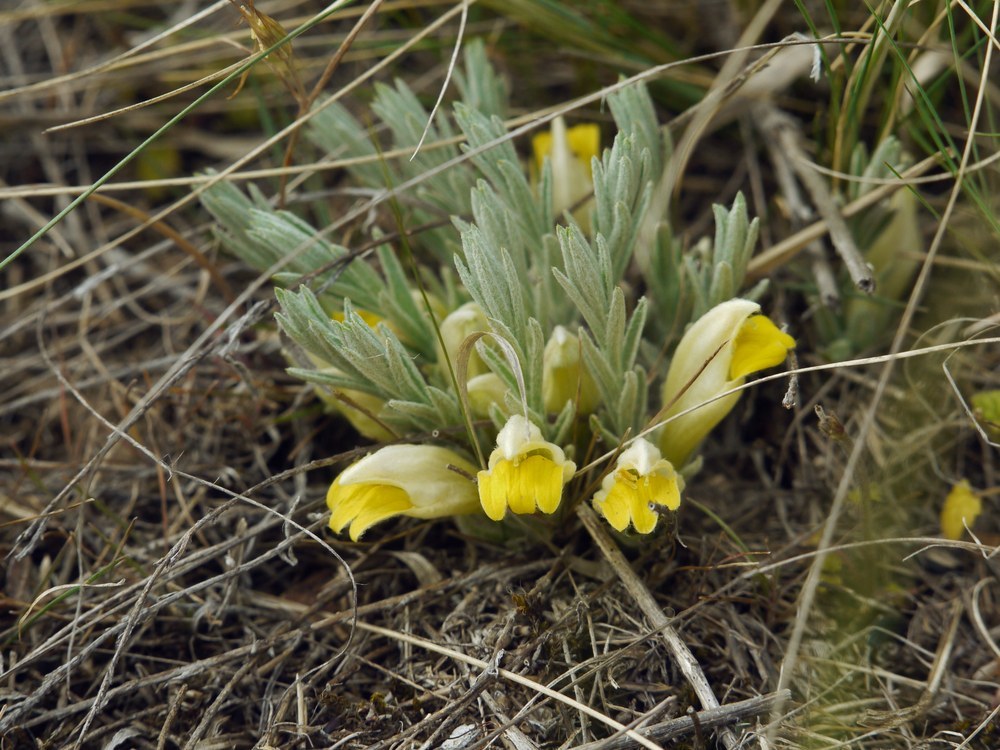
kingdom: Plantae
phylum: Tracheophyta
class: Magnoliopsida
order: Lamiales
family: Orobanchaceae
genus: Cymbaria
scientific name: Cymbaria borysthenica
